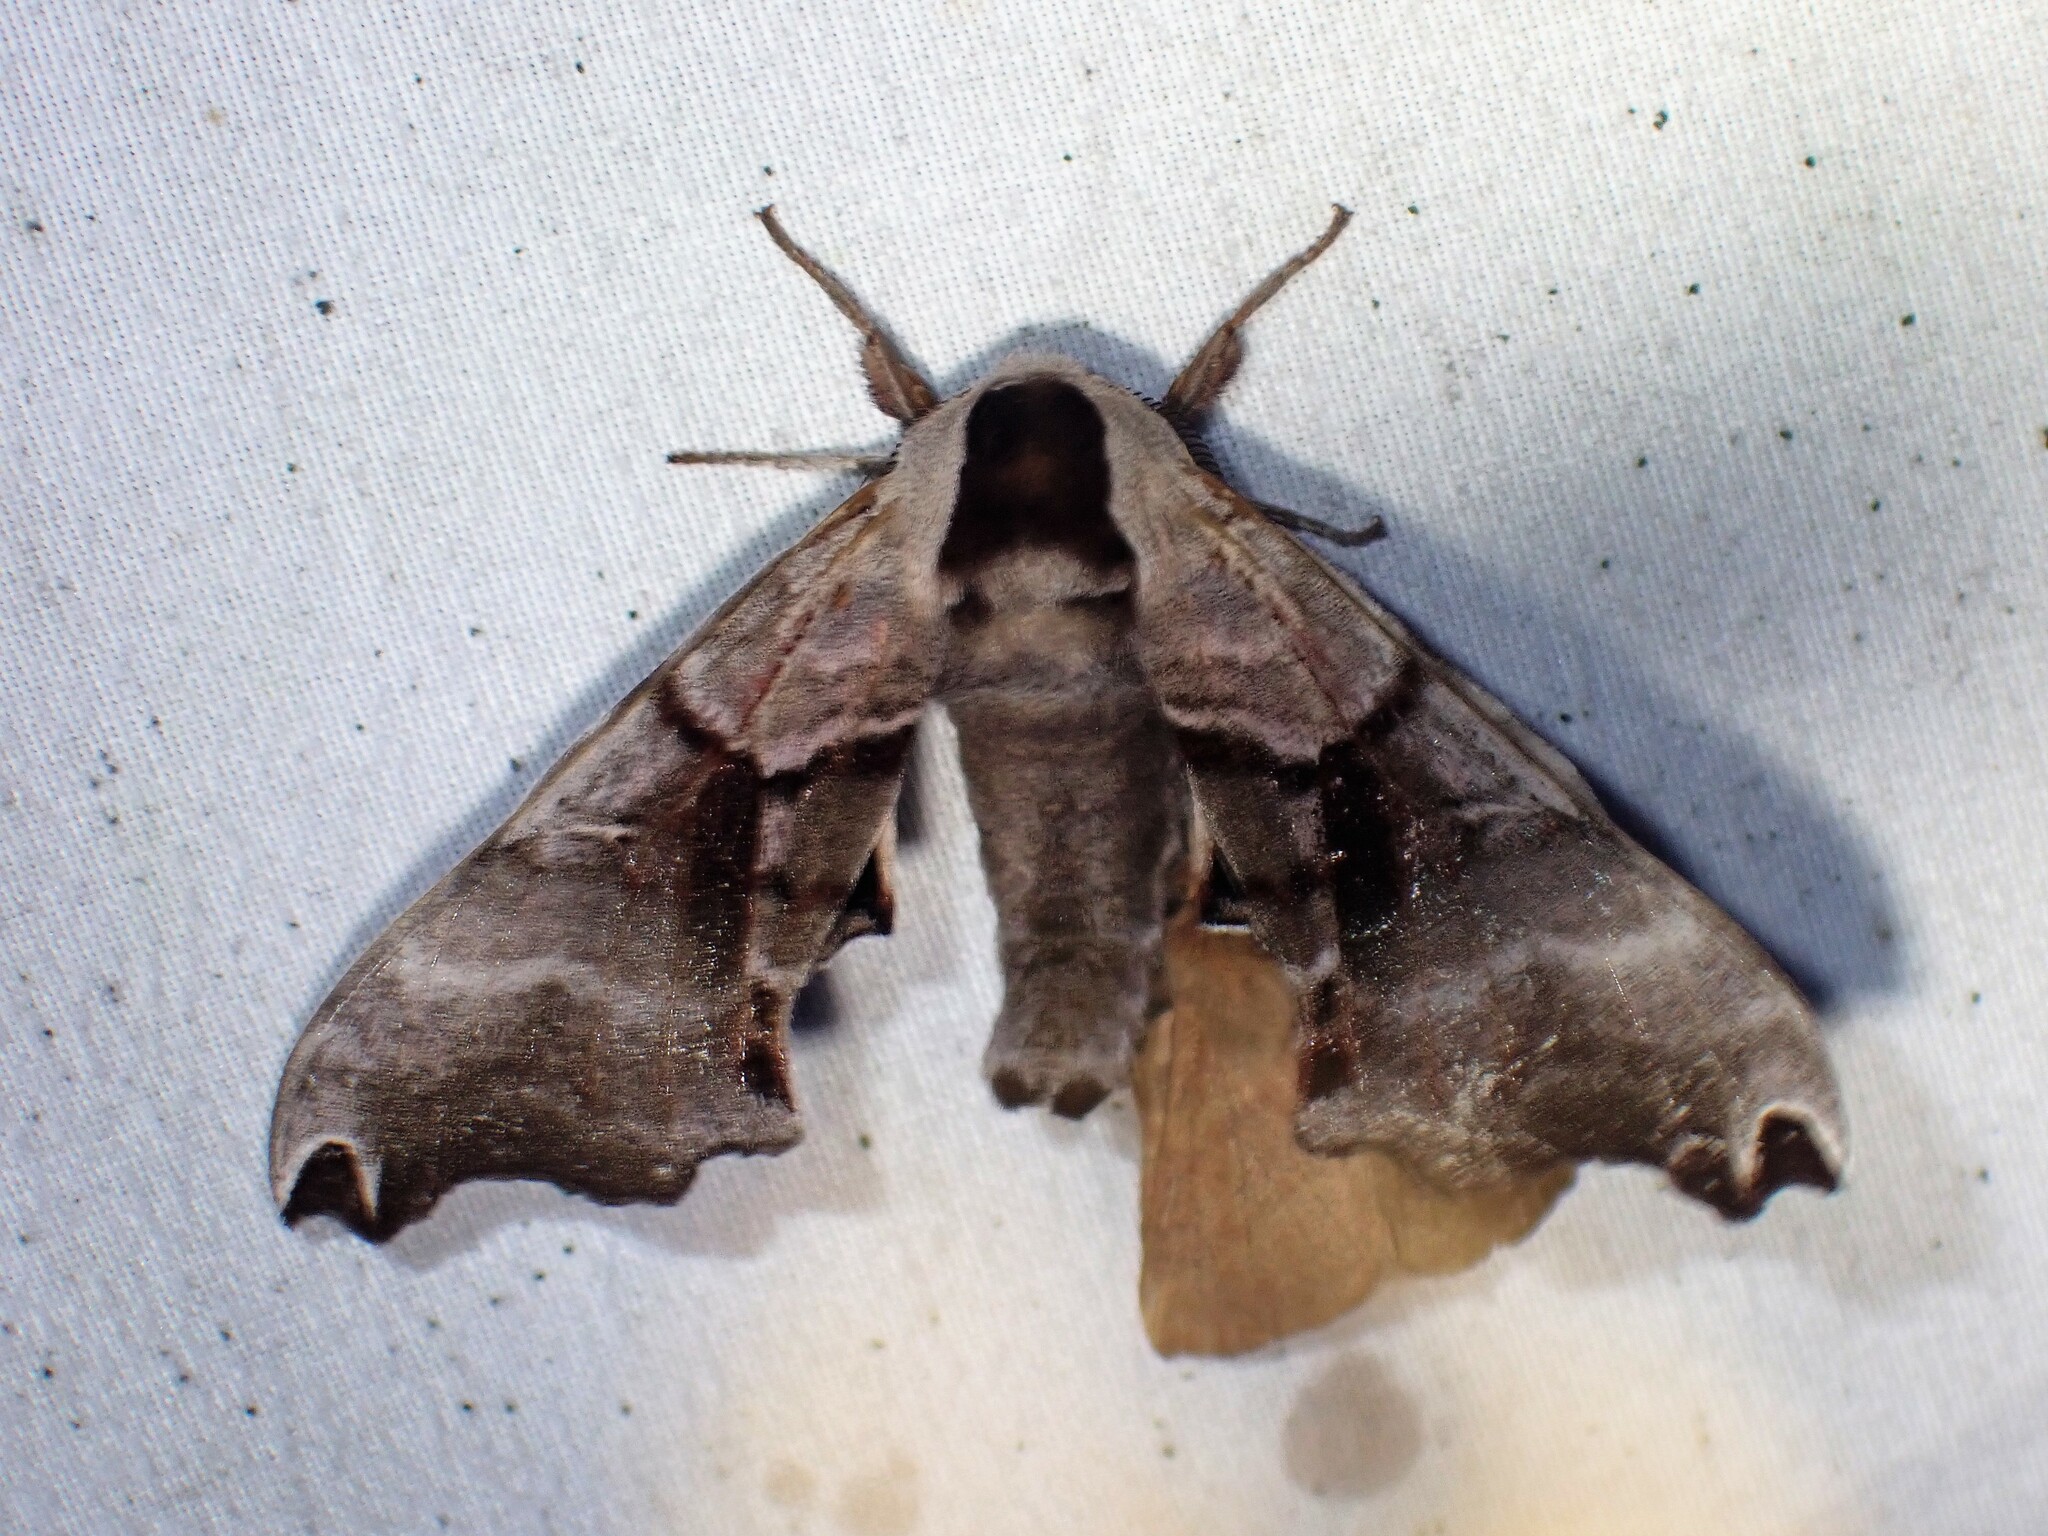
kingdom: Animalia
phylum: Arthropoda
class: Insecta
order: Lepidoptera
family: Sphingidae
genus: Smerinthus
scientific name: Smerinthus jamaicensis
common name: Twin spotted sphinx
